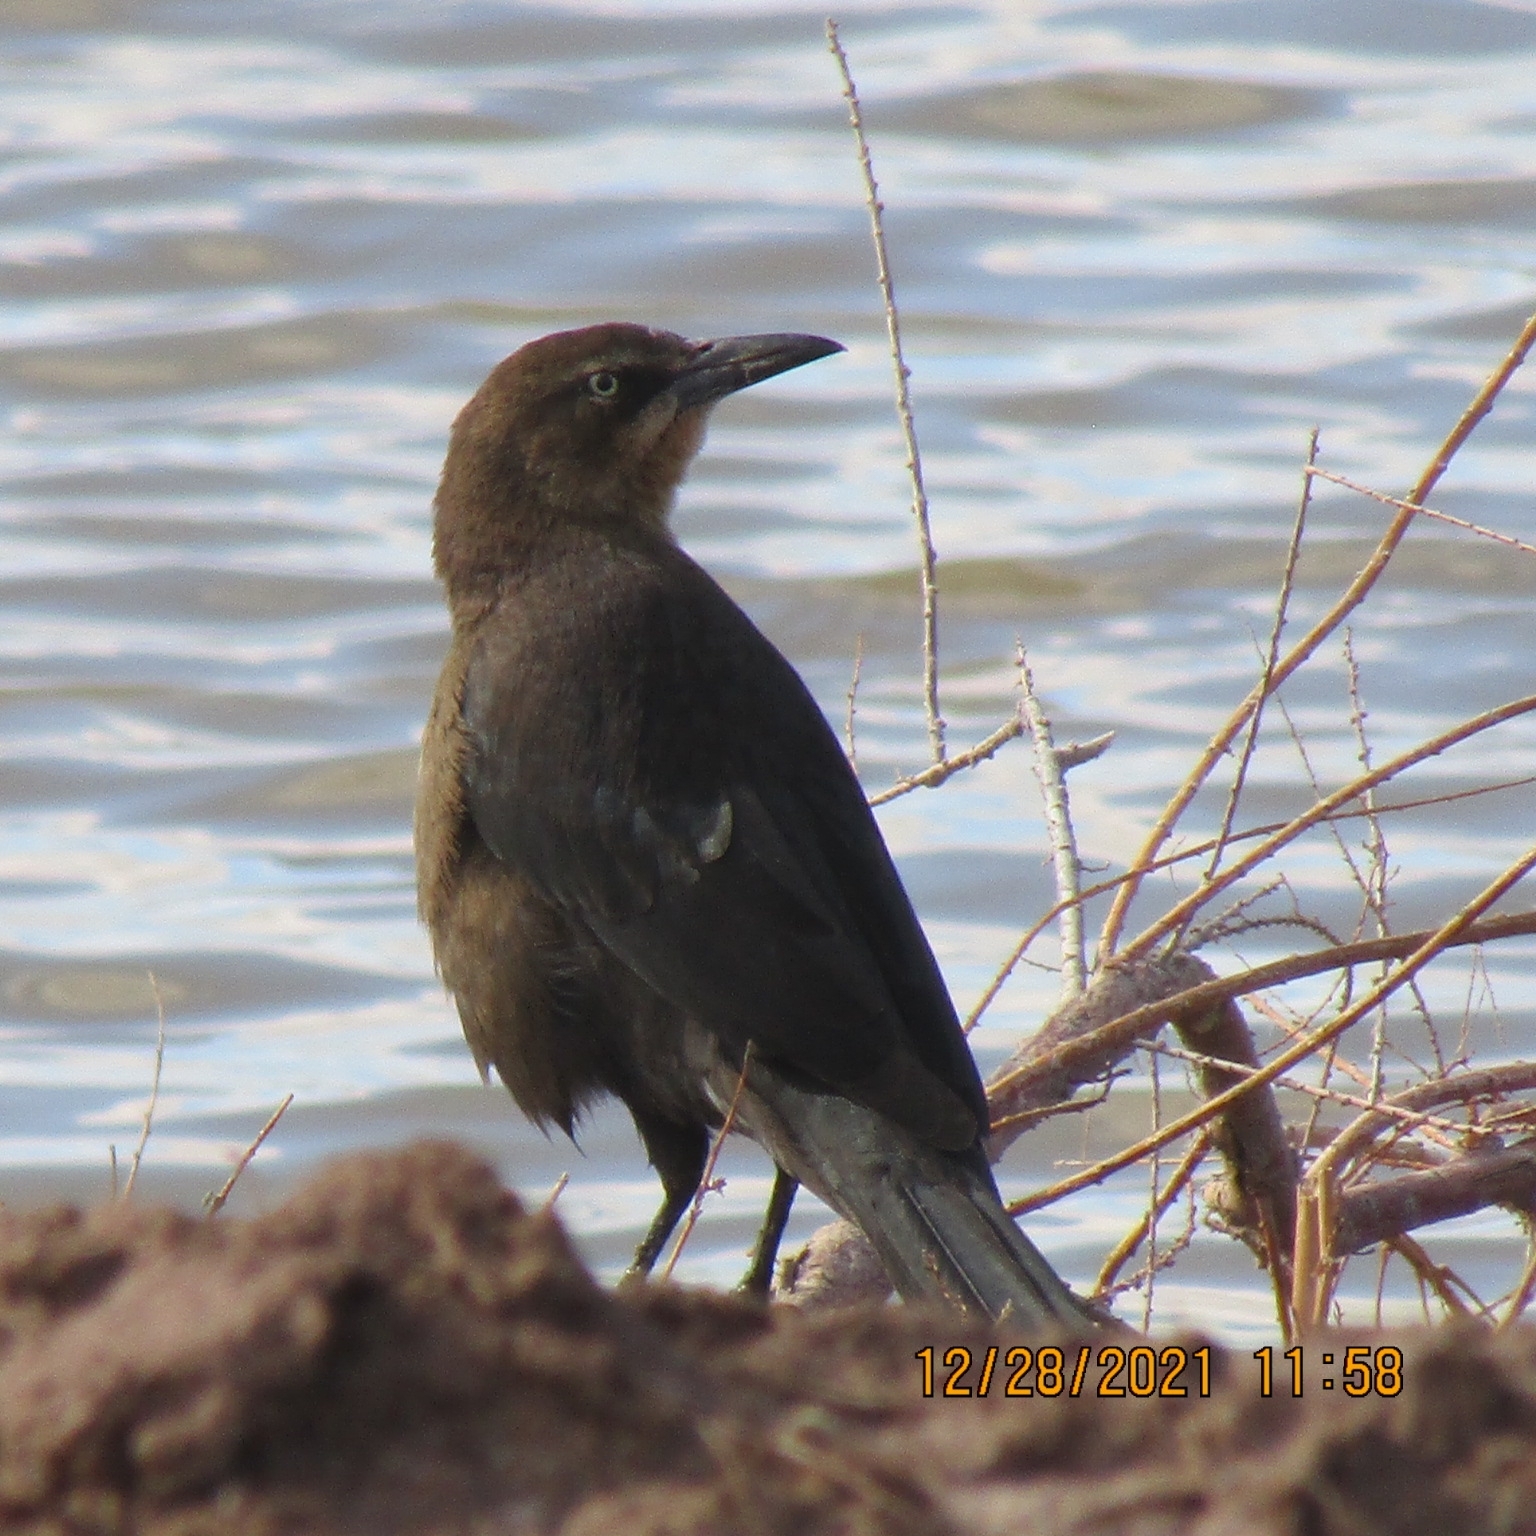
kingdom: Animalia
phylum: Chordata
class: Aves
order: Passeriformes
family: Icteridae
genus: Quiscalus
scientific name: Quiscalus mexicanus
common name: Great-tailed grackle
